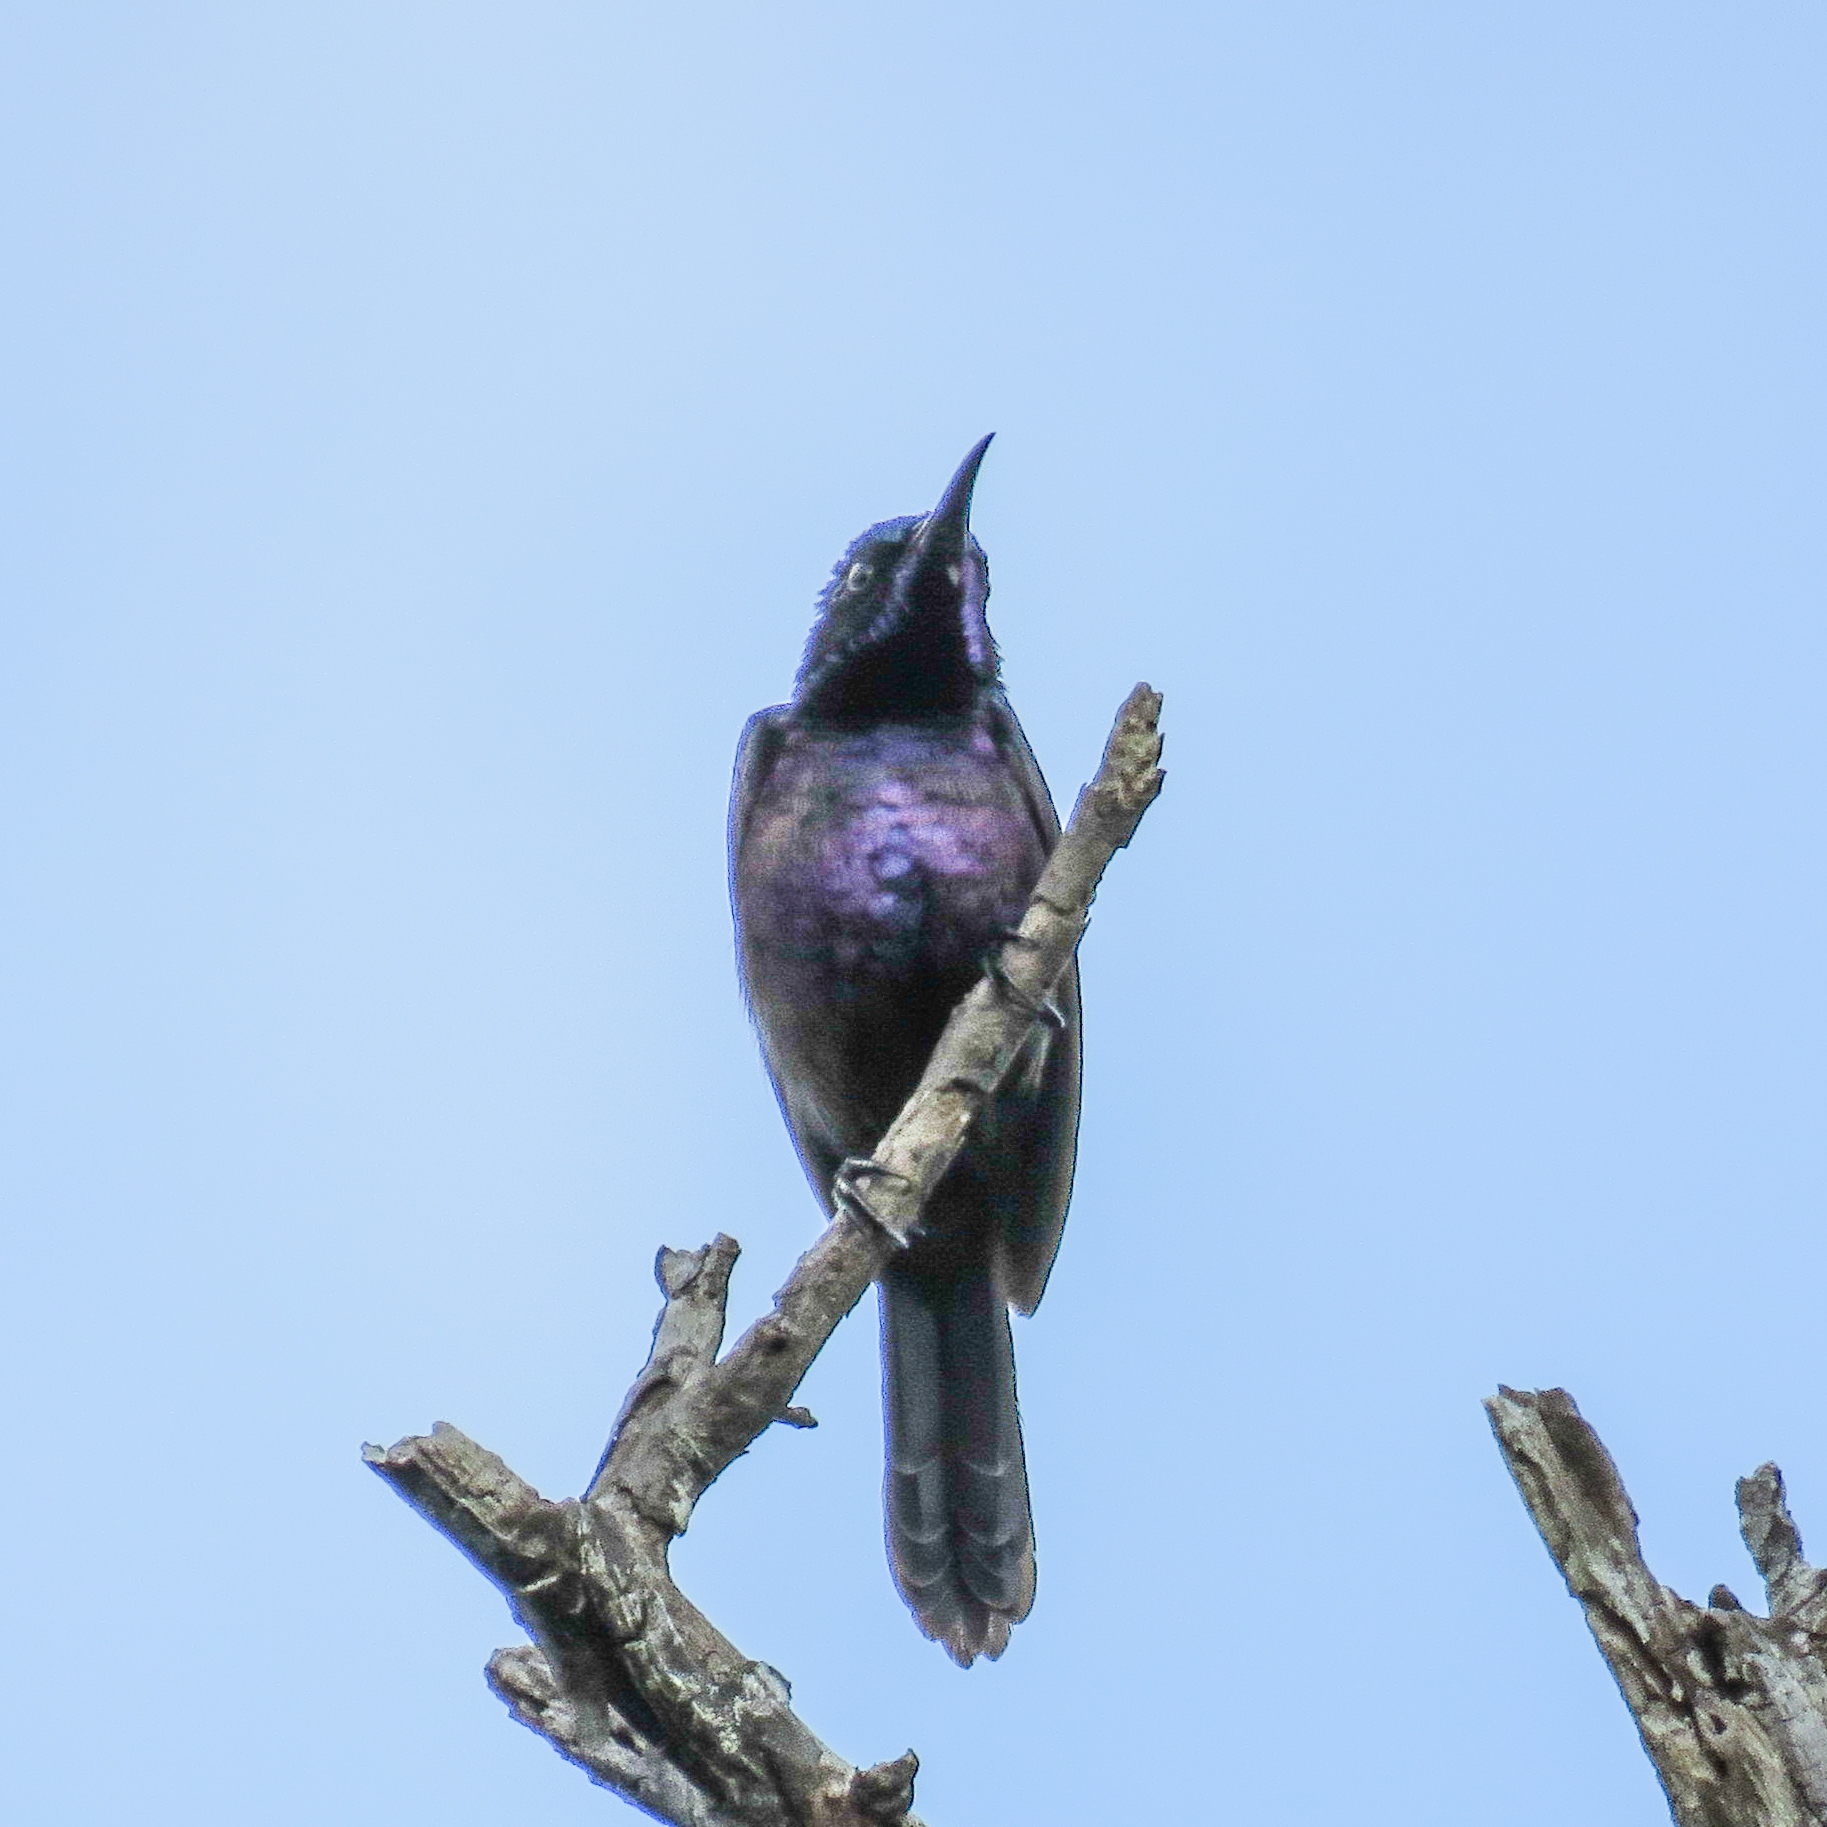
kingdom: Animalia
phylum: Chordata
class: Aves
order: Passeriformes
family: Nectariniidae
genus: Leptocoma
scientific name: Leptocoma calcostetha
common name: Copper-throated sunbird
